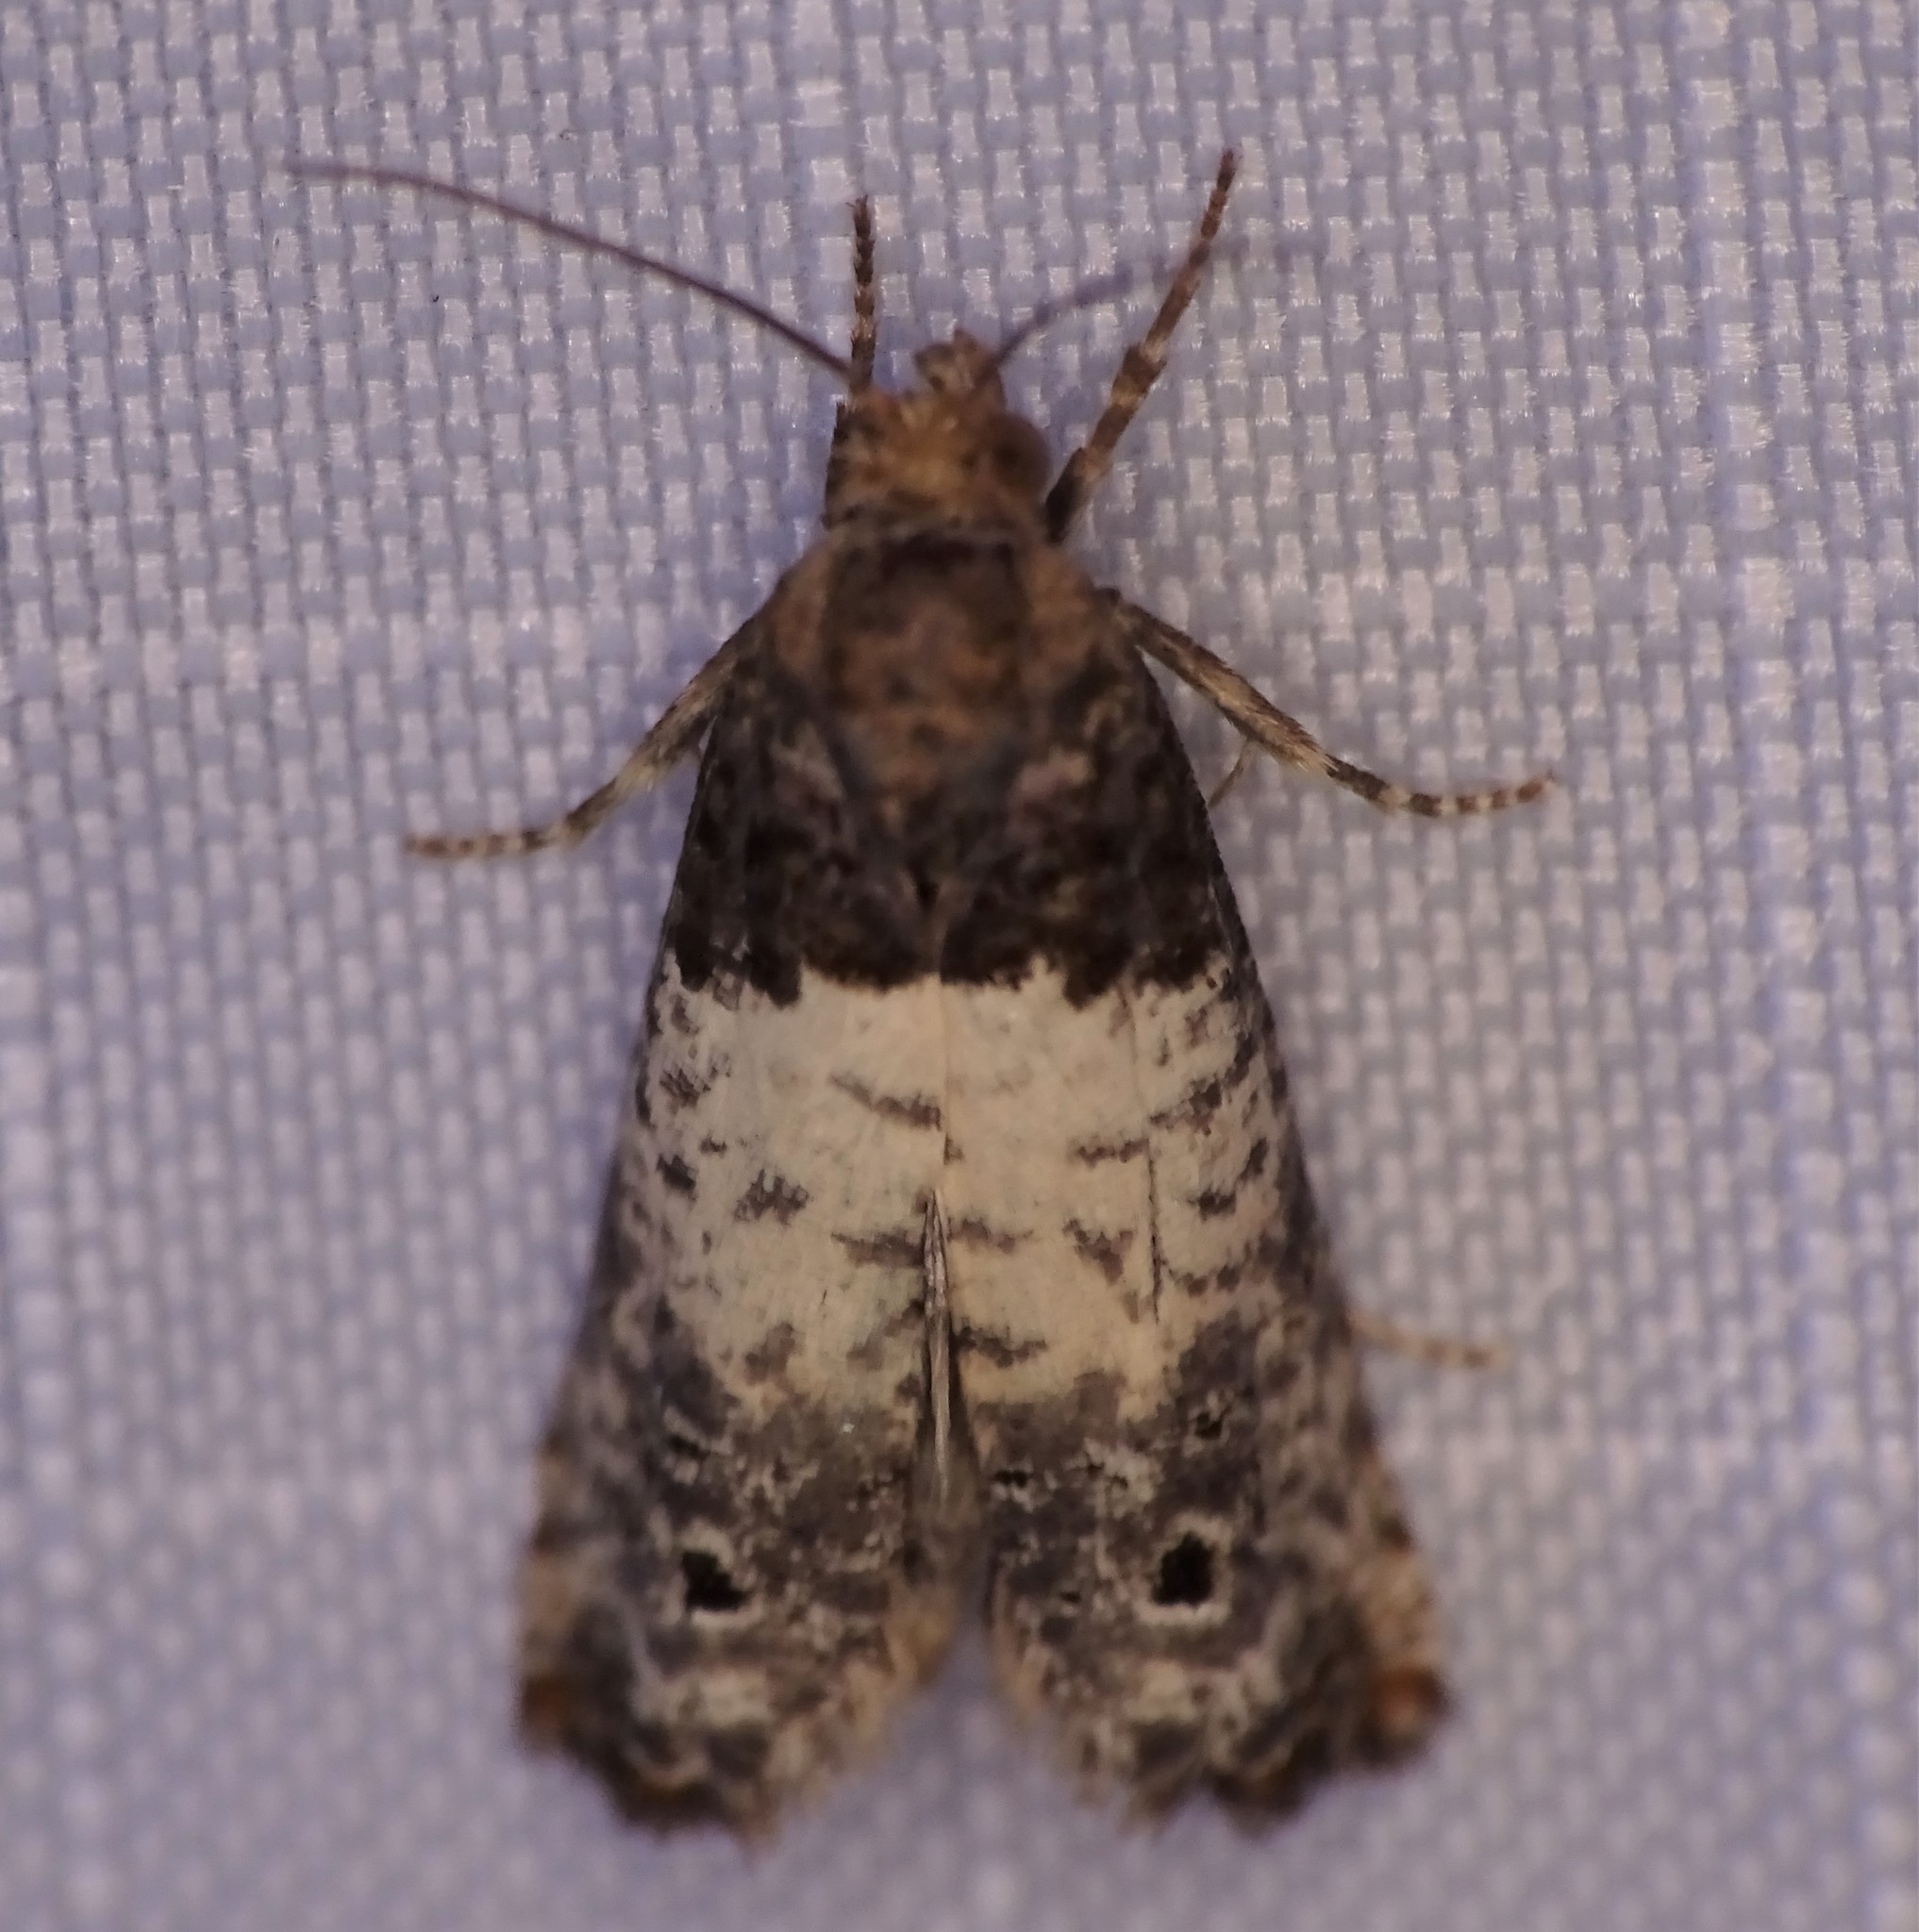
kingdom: Animalia
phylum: Arthropoda
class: Insecta
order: Lepidoptera
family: Tortricidae
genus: Epiblema
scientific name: Epiblema scudderiana
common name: Goldenrod gall moth
